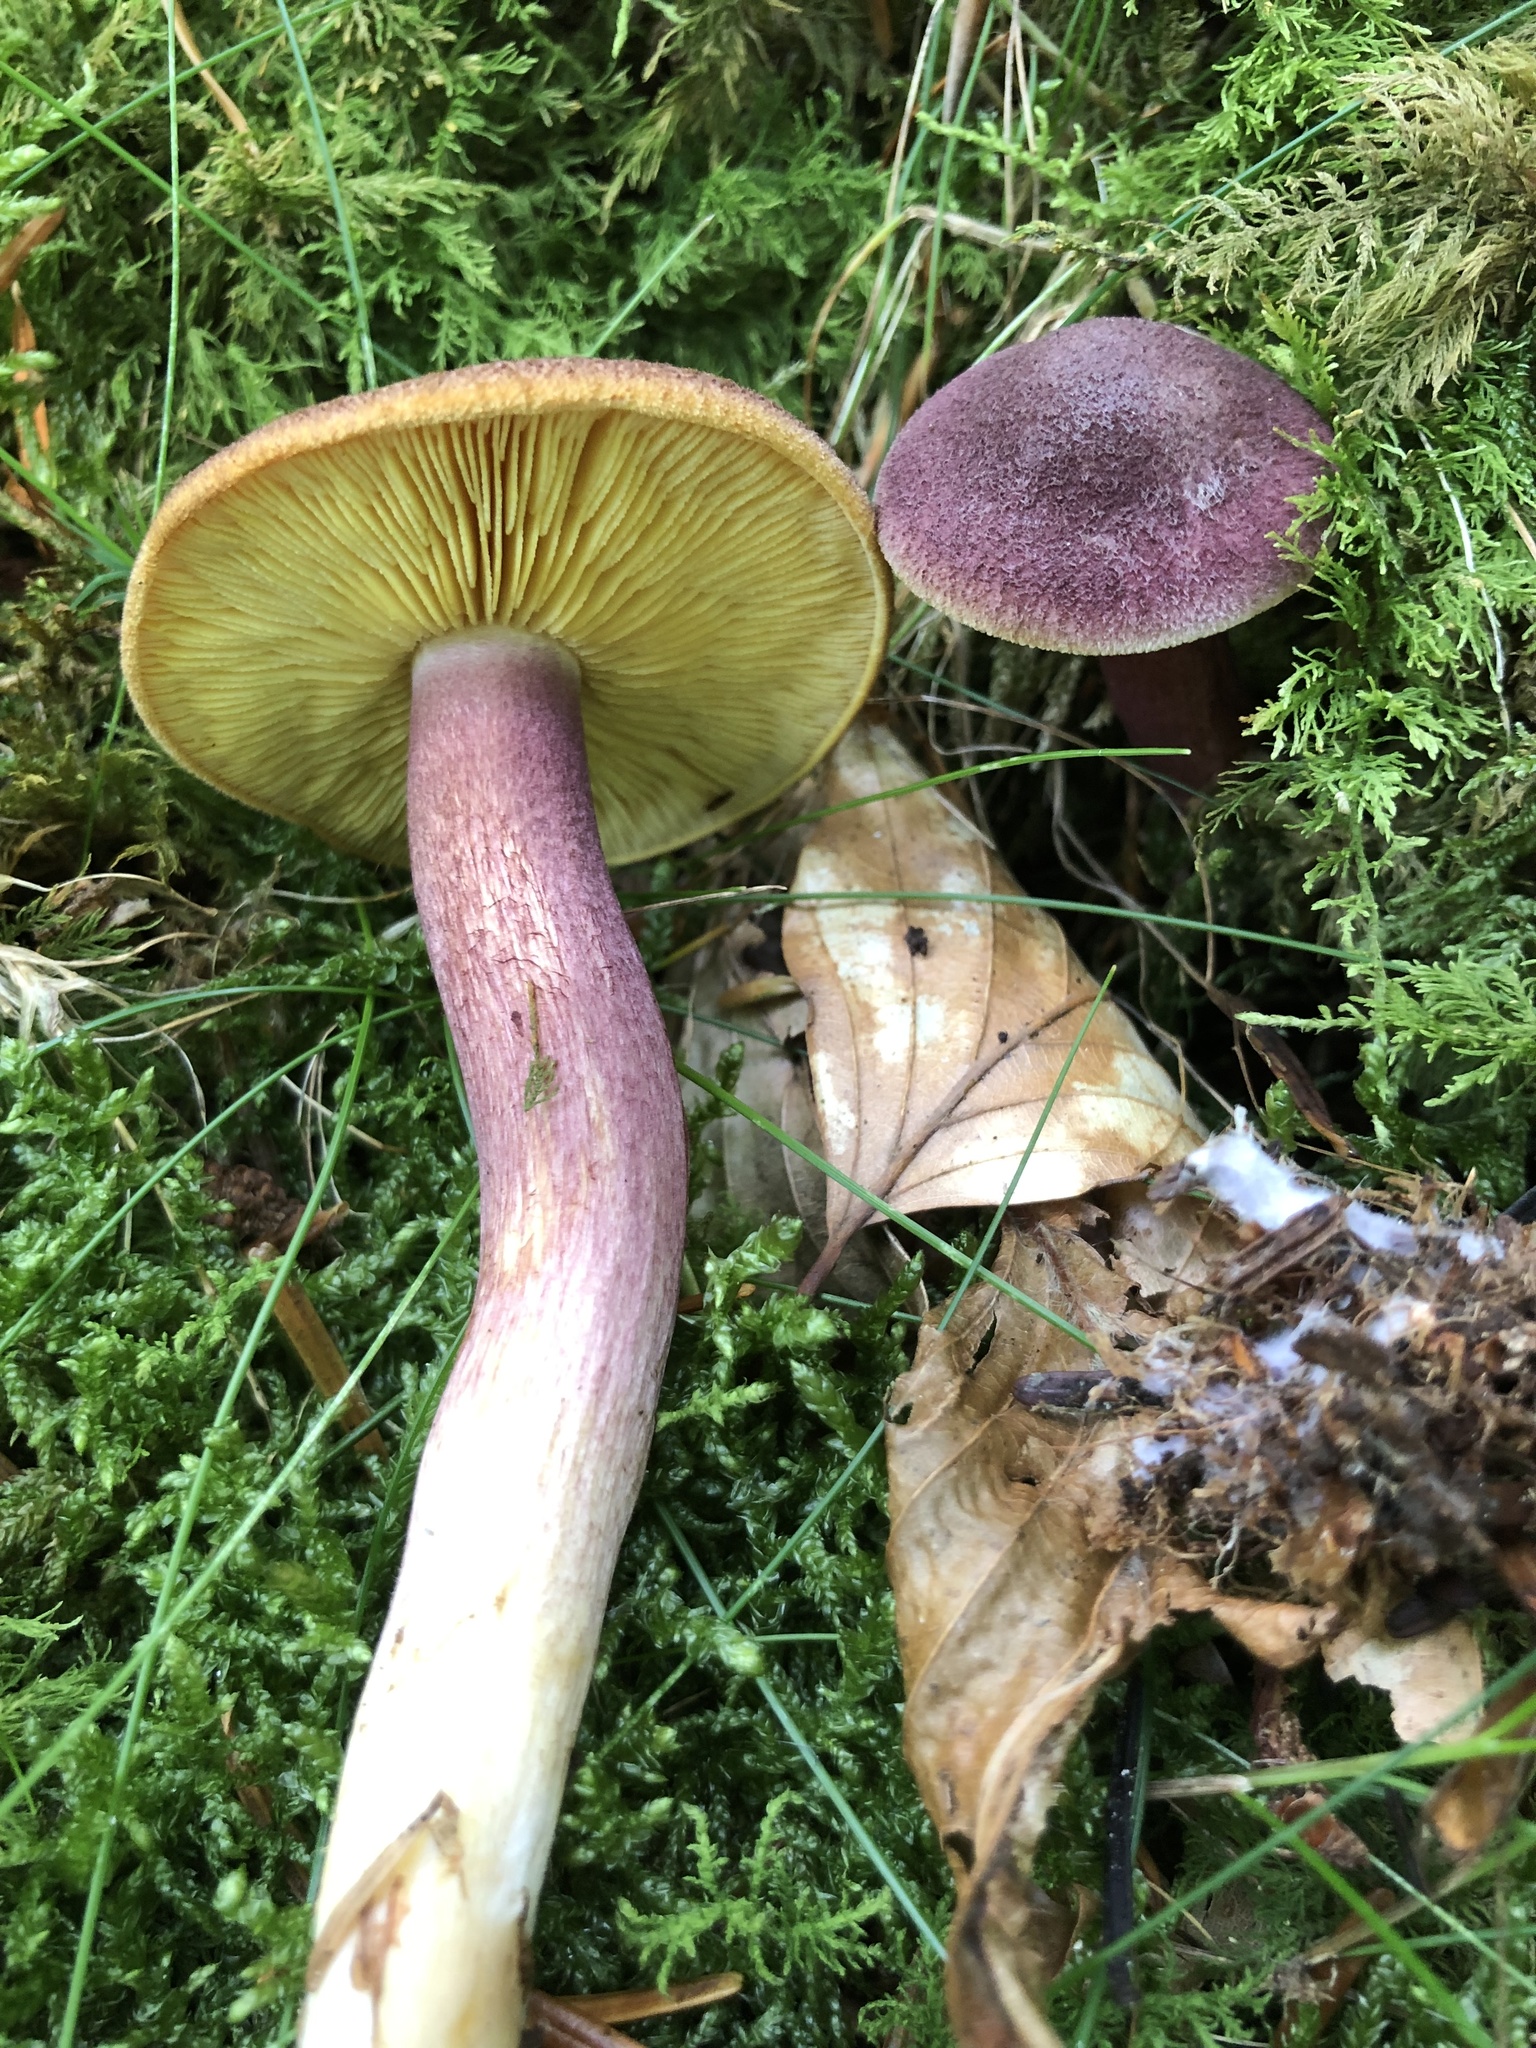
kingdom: Fungi
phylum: Basidiomycota
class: Agaricomycetes
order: Agaricales
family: Tricholomataceae
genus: Tricholomopsis
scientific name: Tricholomopsis rutilans
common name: Plums and custard
